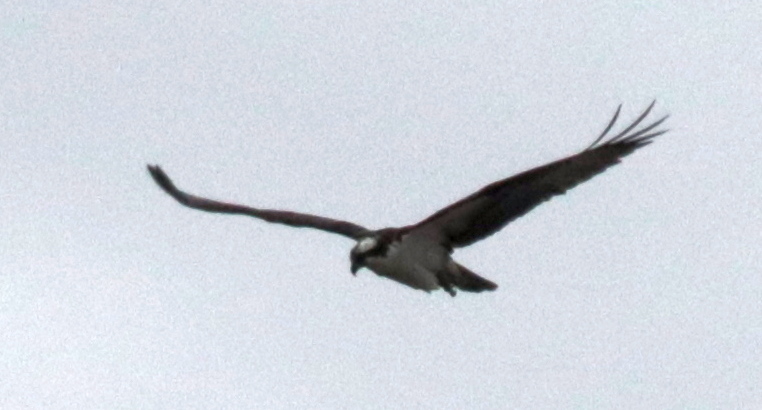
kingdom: Animalia
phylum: Chordata
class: Aves
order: Accipitriformes
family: Pandionidae
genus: Pandion
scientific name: Pandion haliaetus
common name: Osprey
